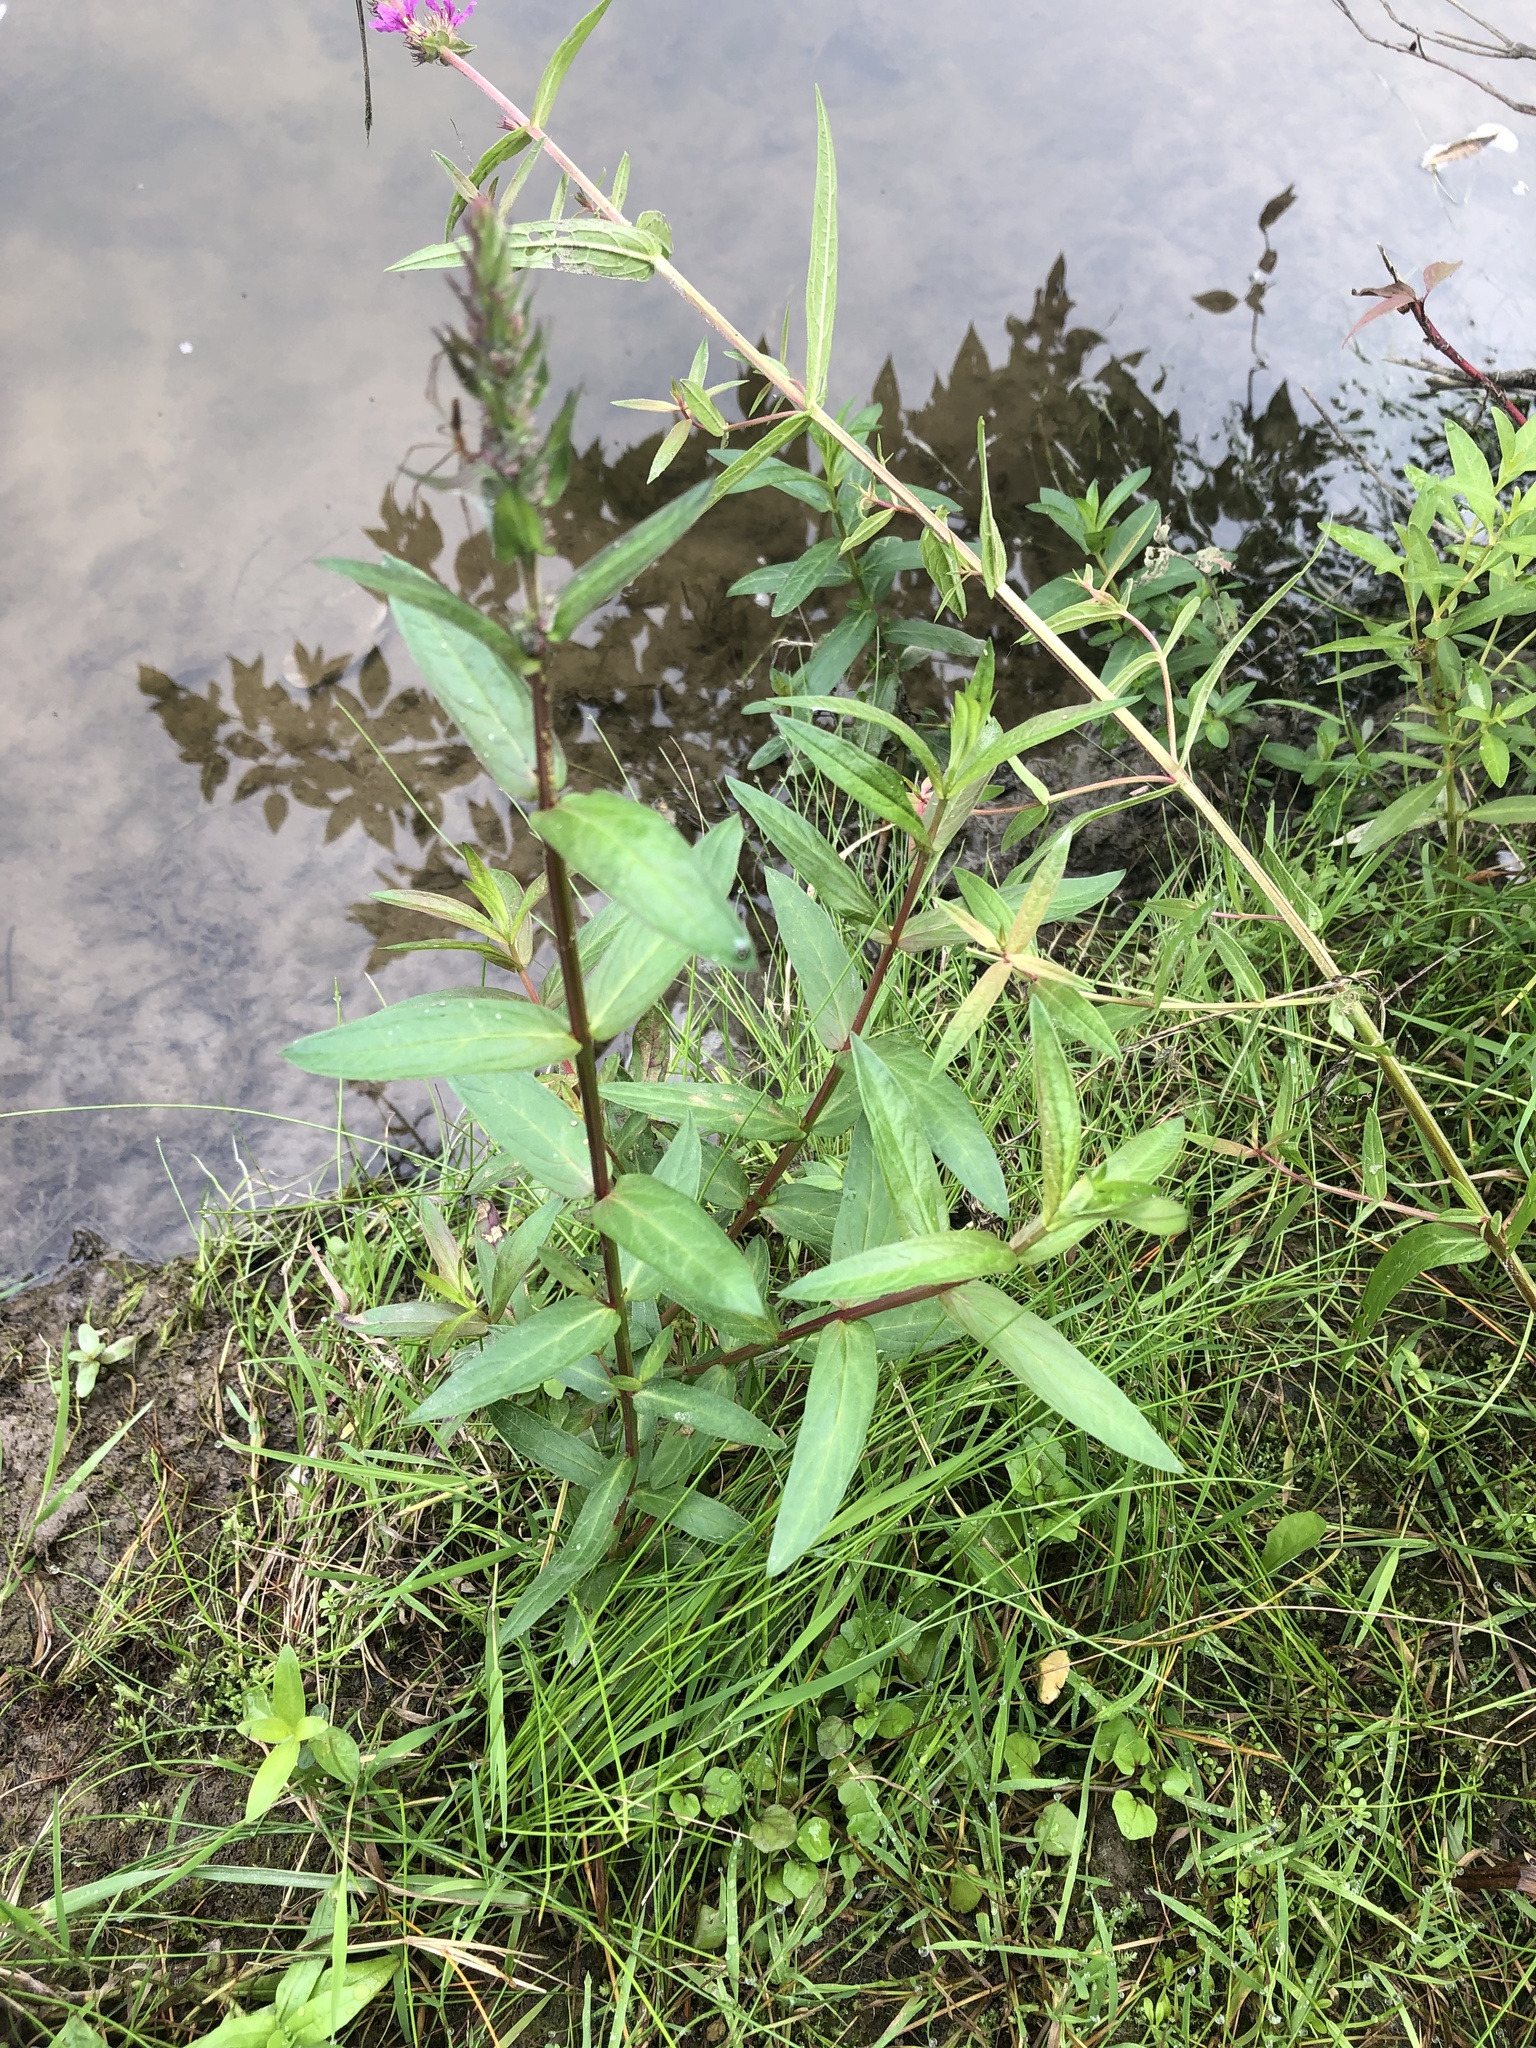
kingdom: Plantae
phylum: Tracheophyta
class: Magnoliopsida
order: Myrtales
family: Lythraceae
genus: Lythrum
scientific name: Lythrum salicaria
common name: Purple loosestrife
